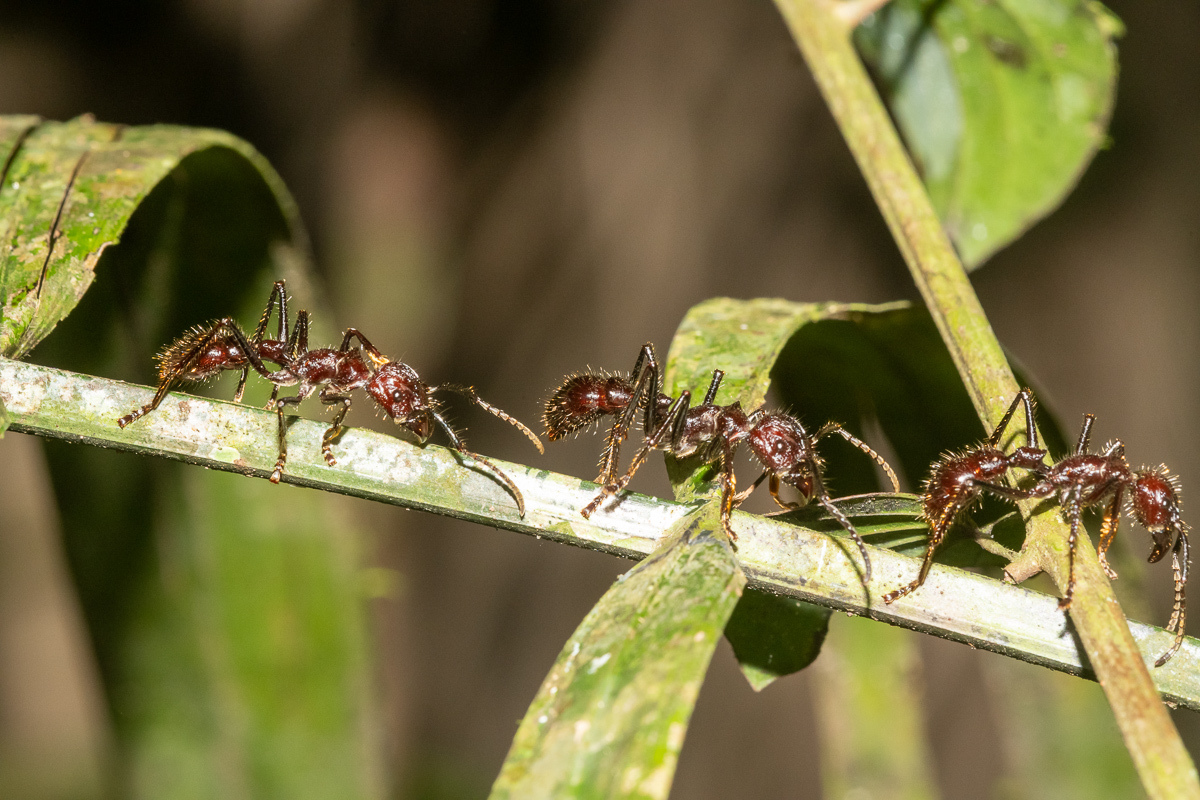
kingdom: Animalia
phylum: Arthropoda
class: Insecta
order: Hymenoptera
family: Formicidae
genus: Paraponera
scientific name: Paraponera clavata
